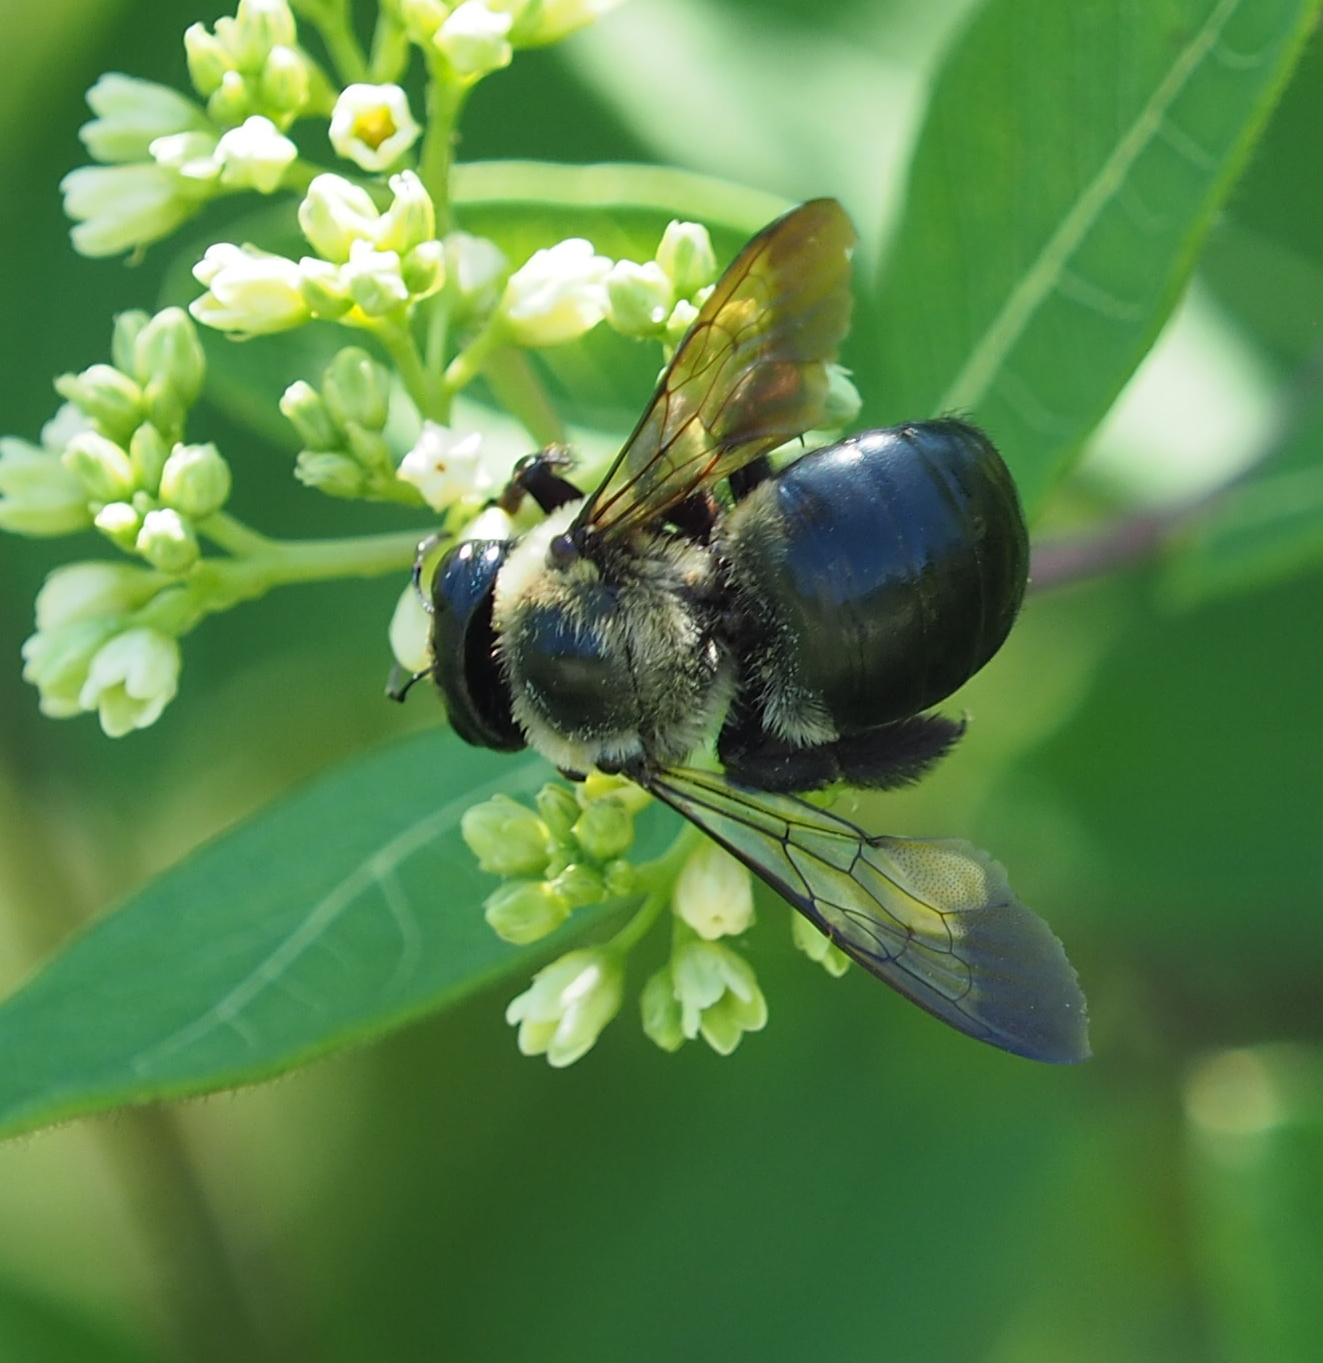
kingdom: Animalia
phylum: Arthropoda
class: Insecta
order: Hymenoptera
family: Apidae
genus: Xylocopa
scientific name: Xylocopa virginica
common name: Carpenter bee
